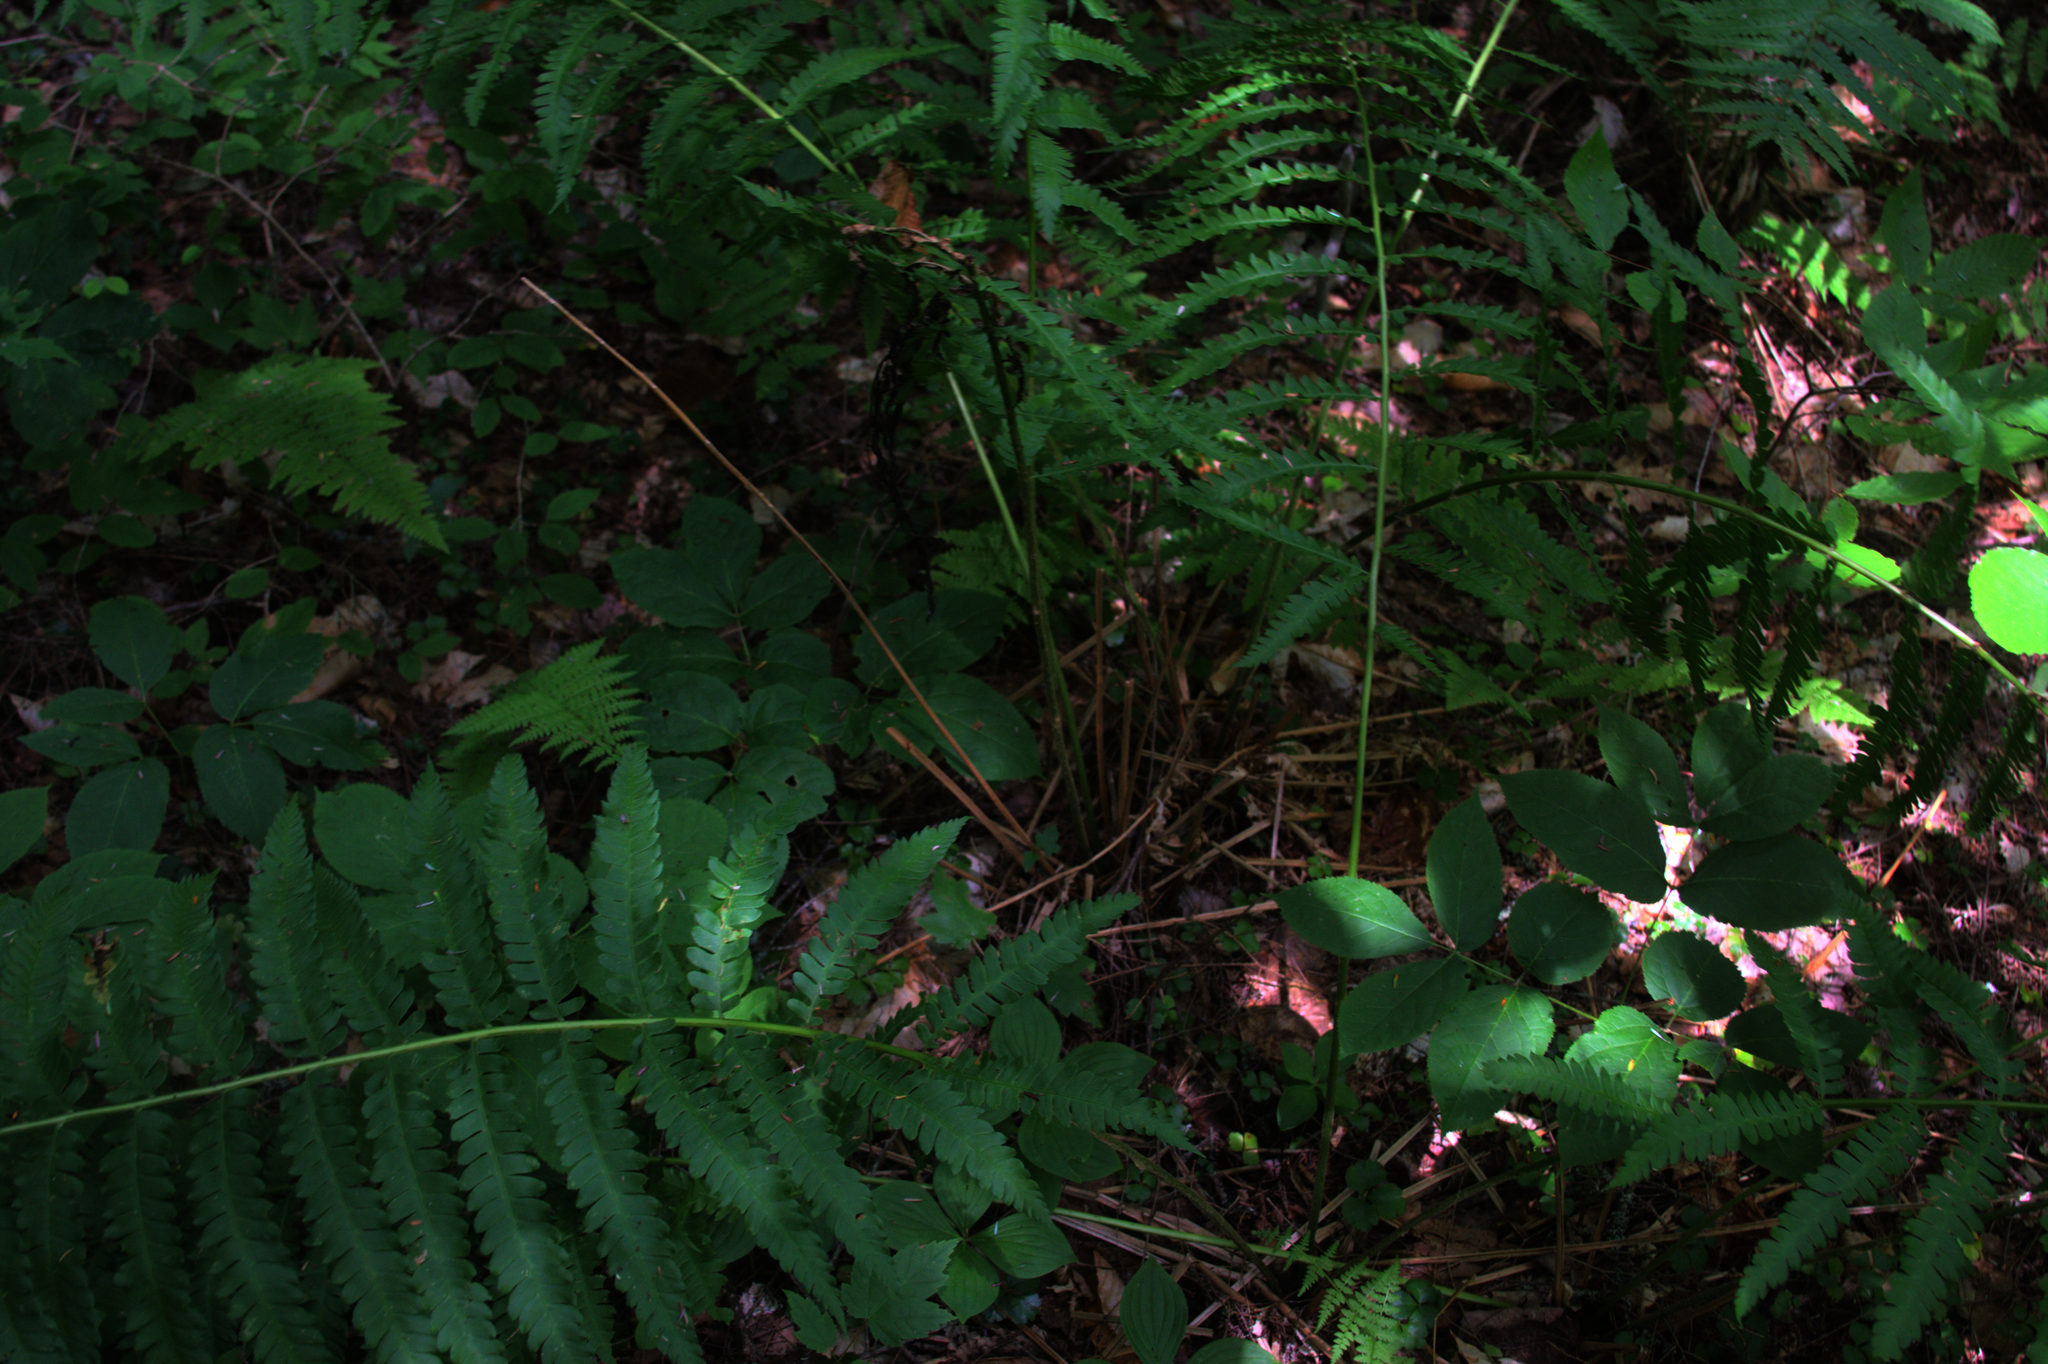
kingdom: Plantae
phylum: Tracheophyta
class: Polypodiopsida
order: Osmundales
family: Osmundaceae
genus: Osmundastrum
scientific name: Osmundastrum cinnamomeum
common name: Cinnamon fern
